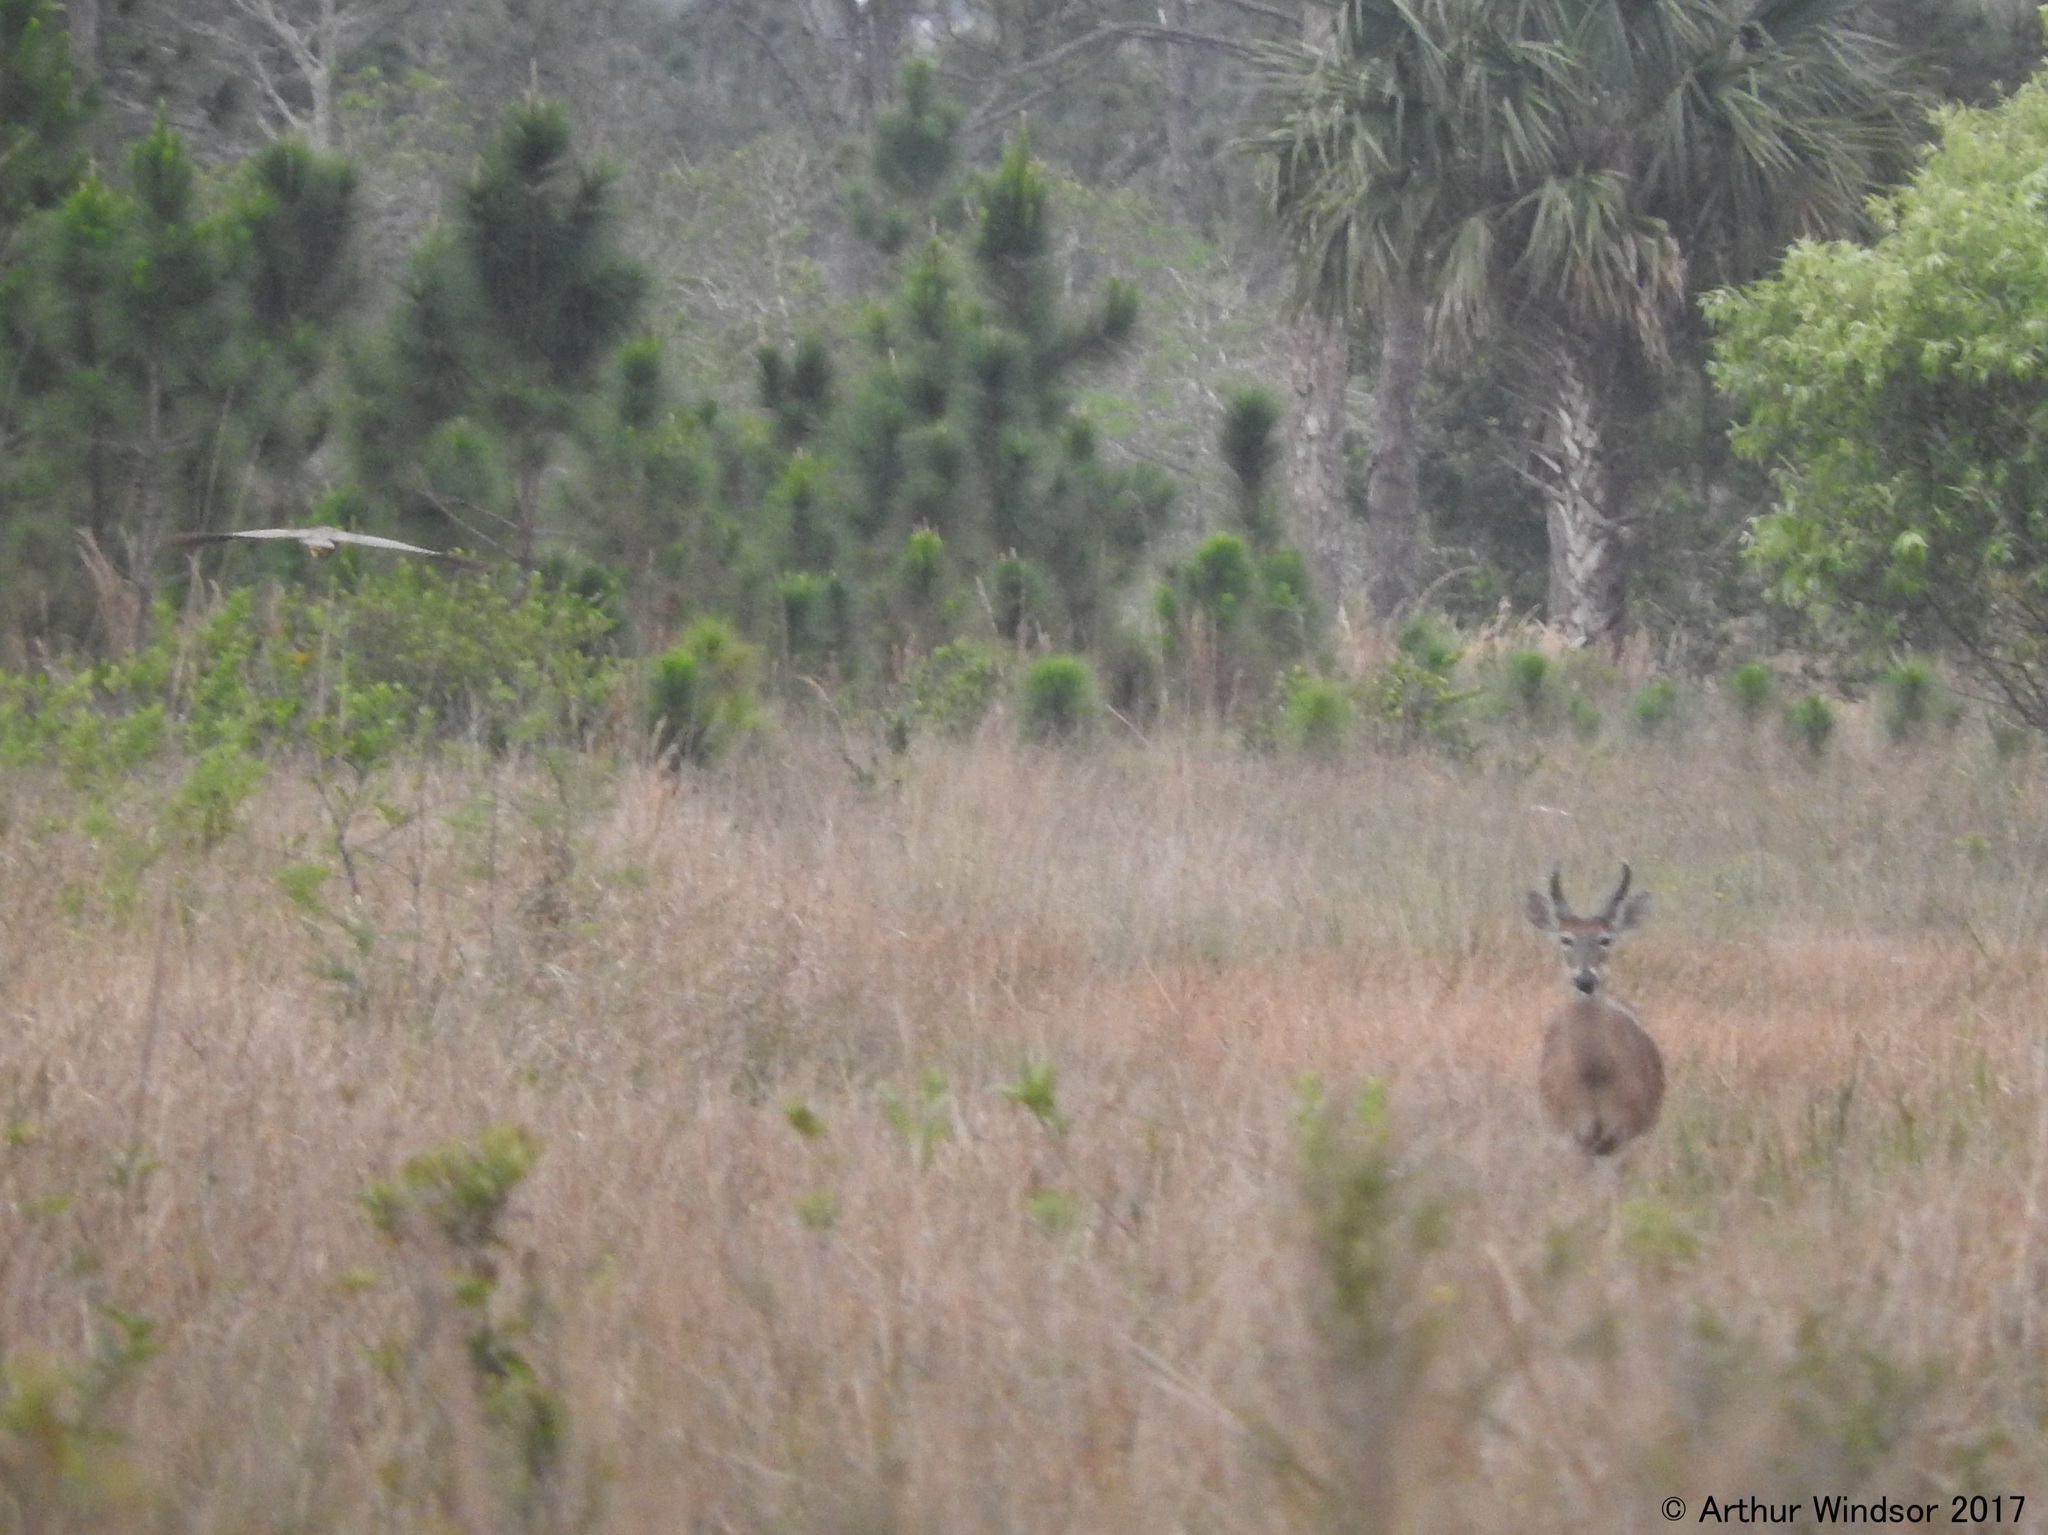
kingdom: Animalia
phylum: Chordata
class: Mammalia
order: Artiodactyla
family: Cervidae
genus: Odocoileus
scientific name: Odocoileus virginianus
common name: White-tailed deer
